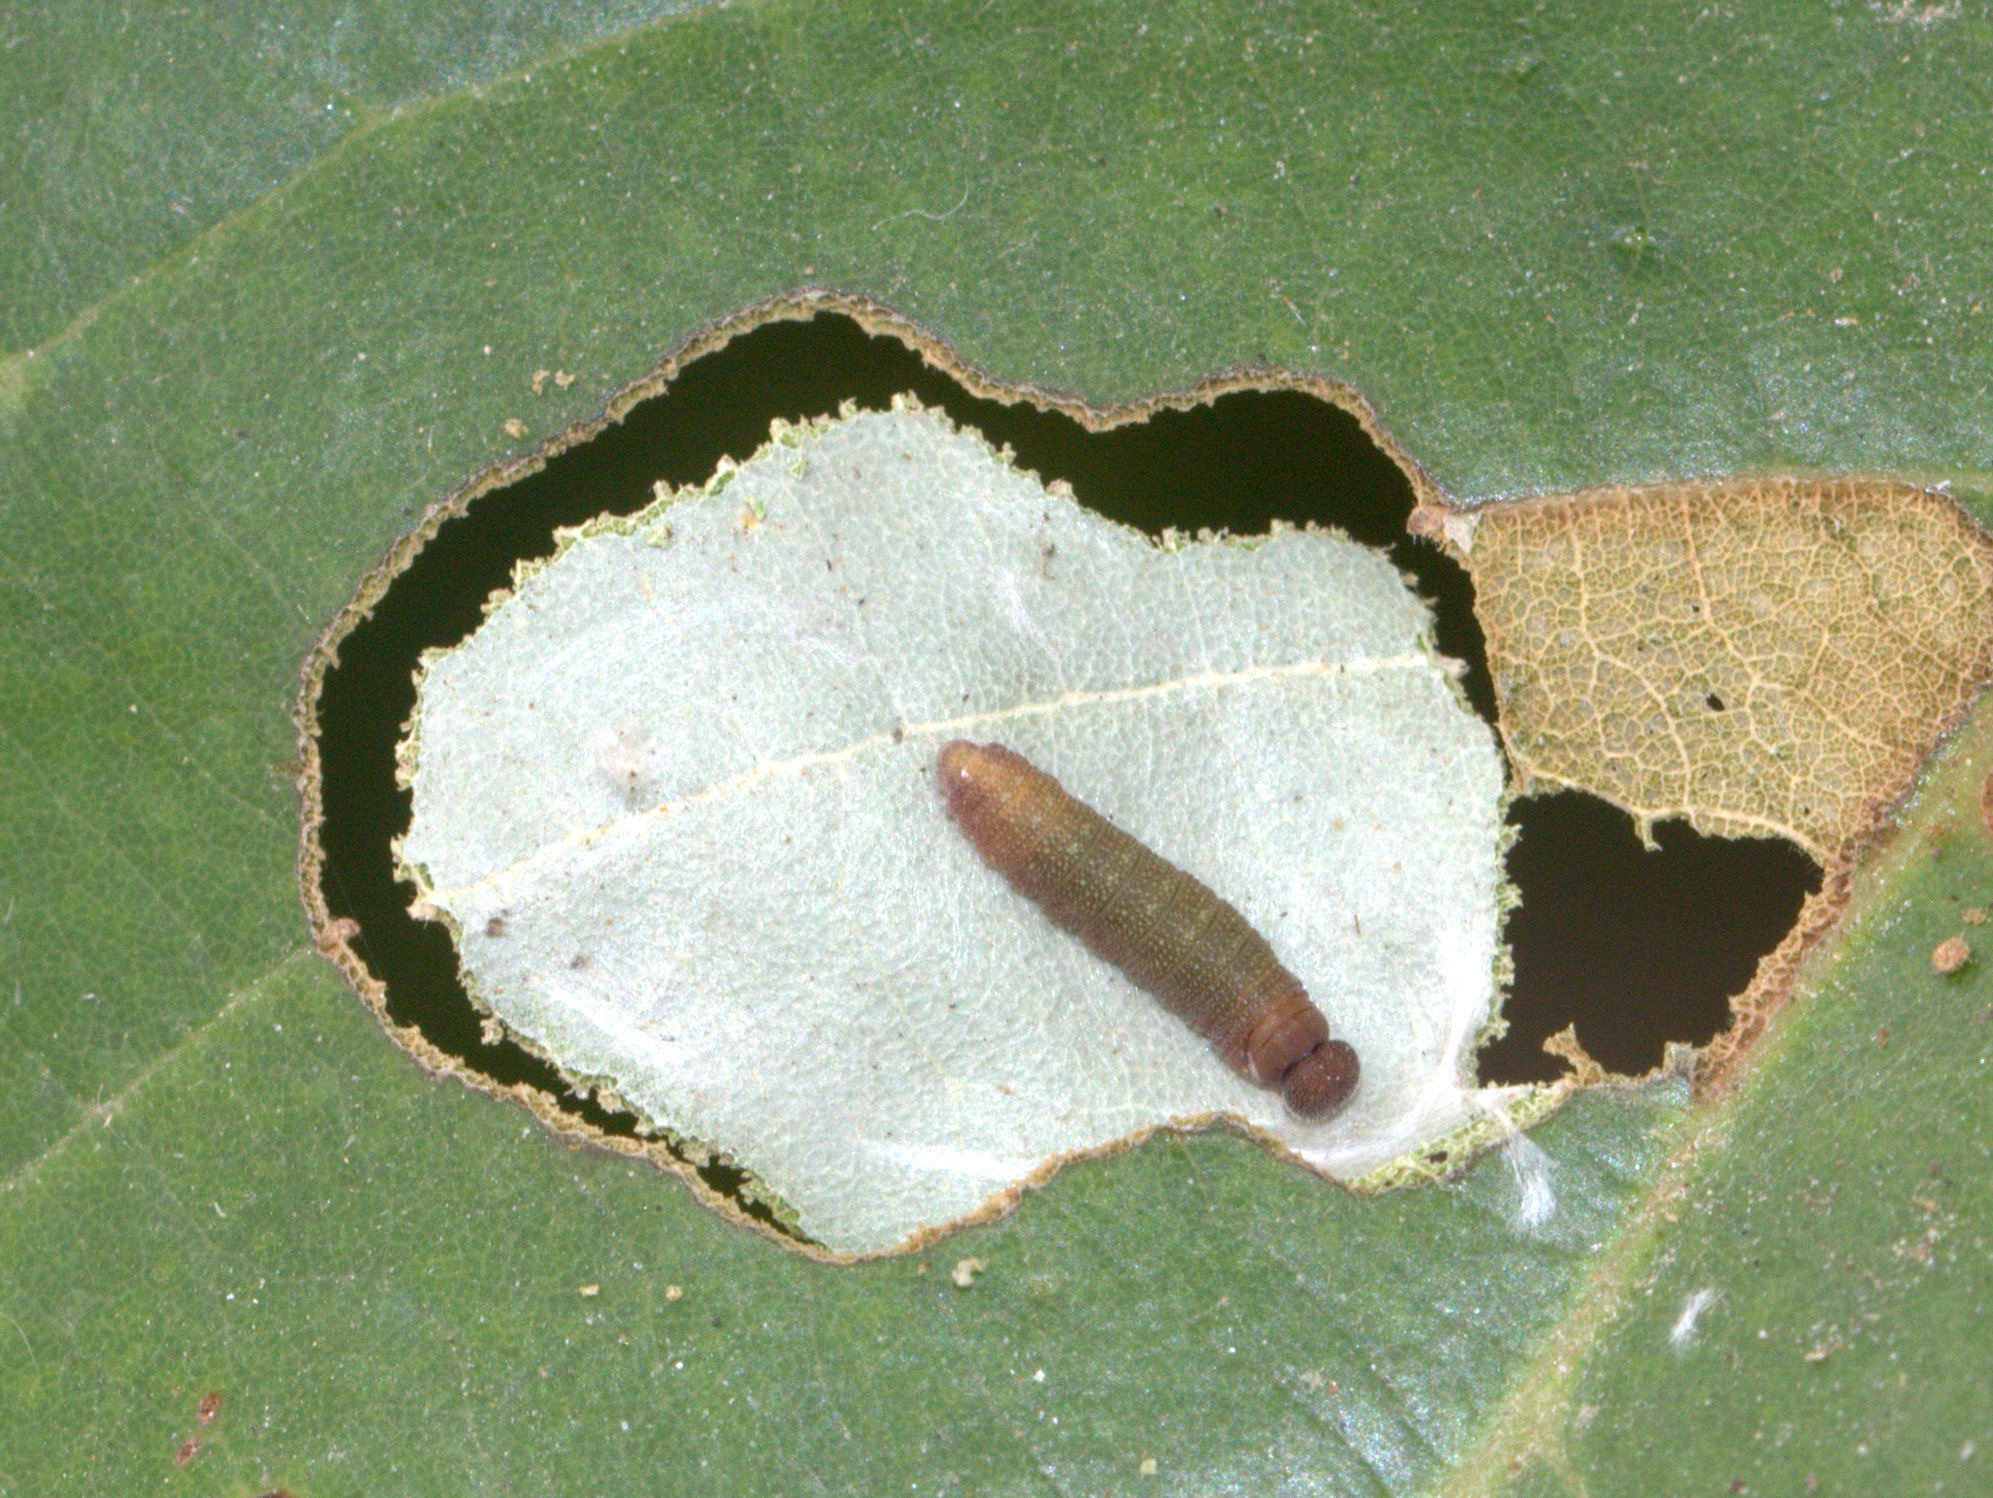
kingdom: Animalia
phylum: Arthropoda
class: Insecta
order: Lepidoptera
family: Hesperiidae
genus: Coladenia
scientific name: Coladenia
